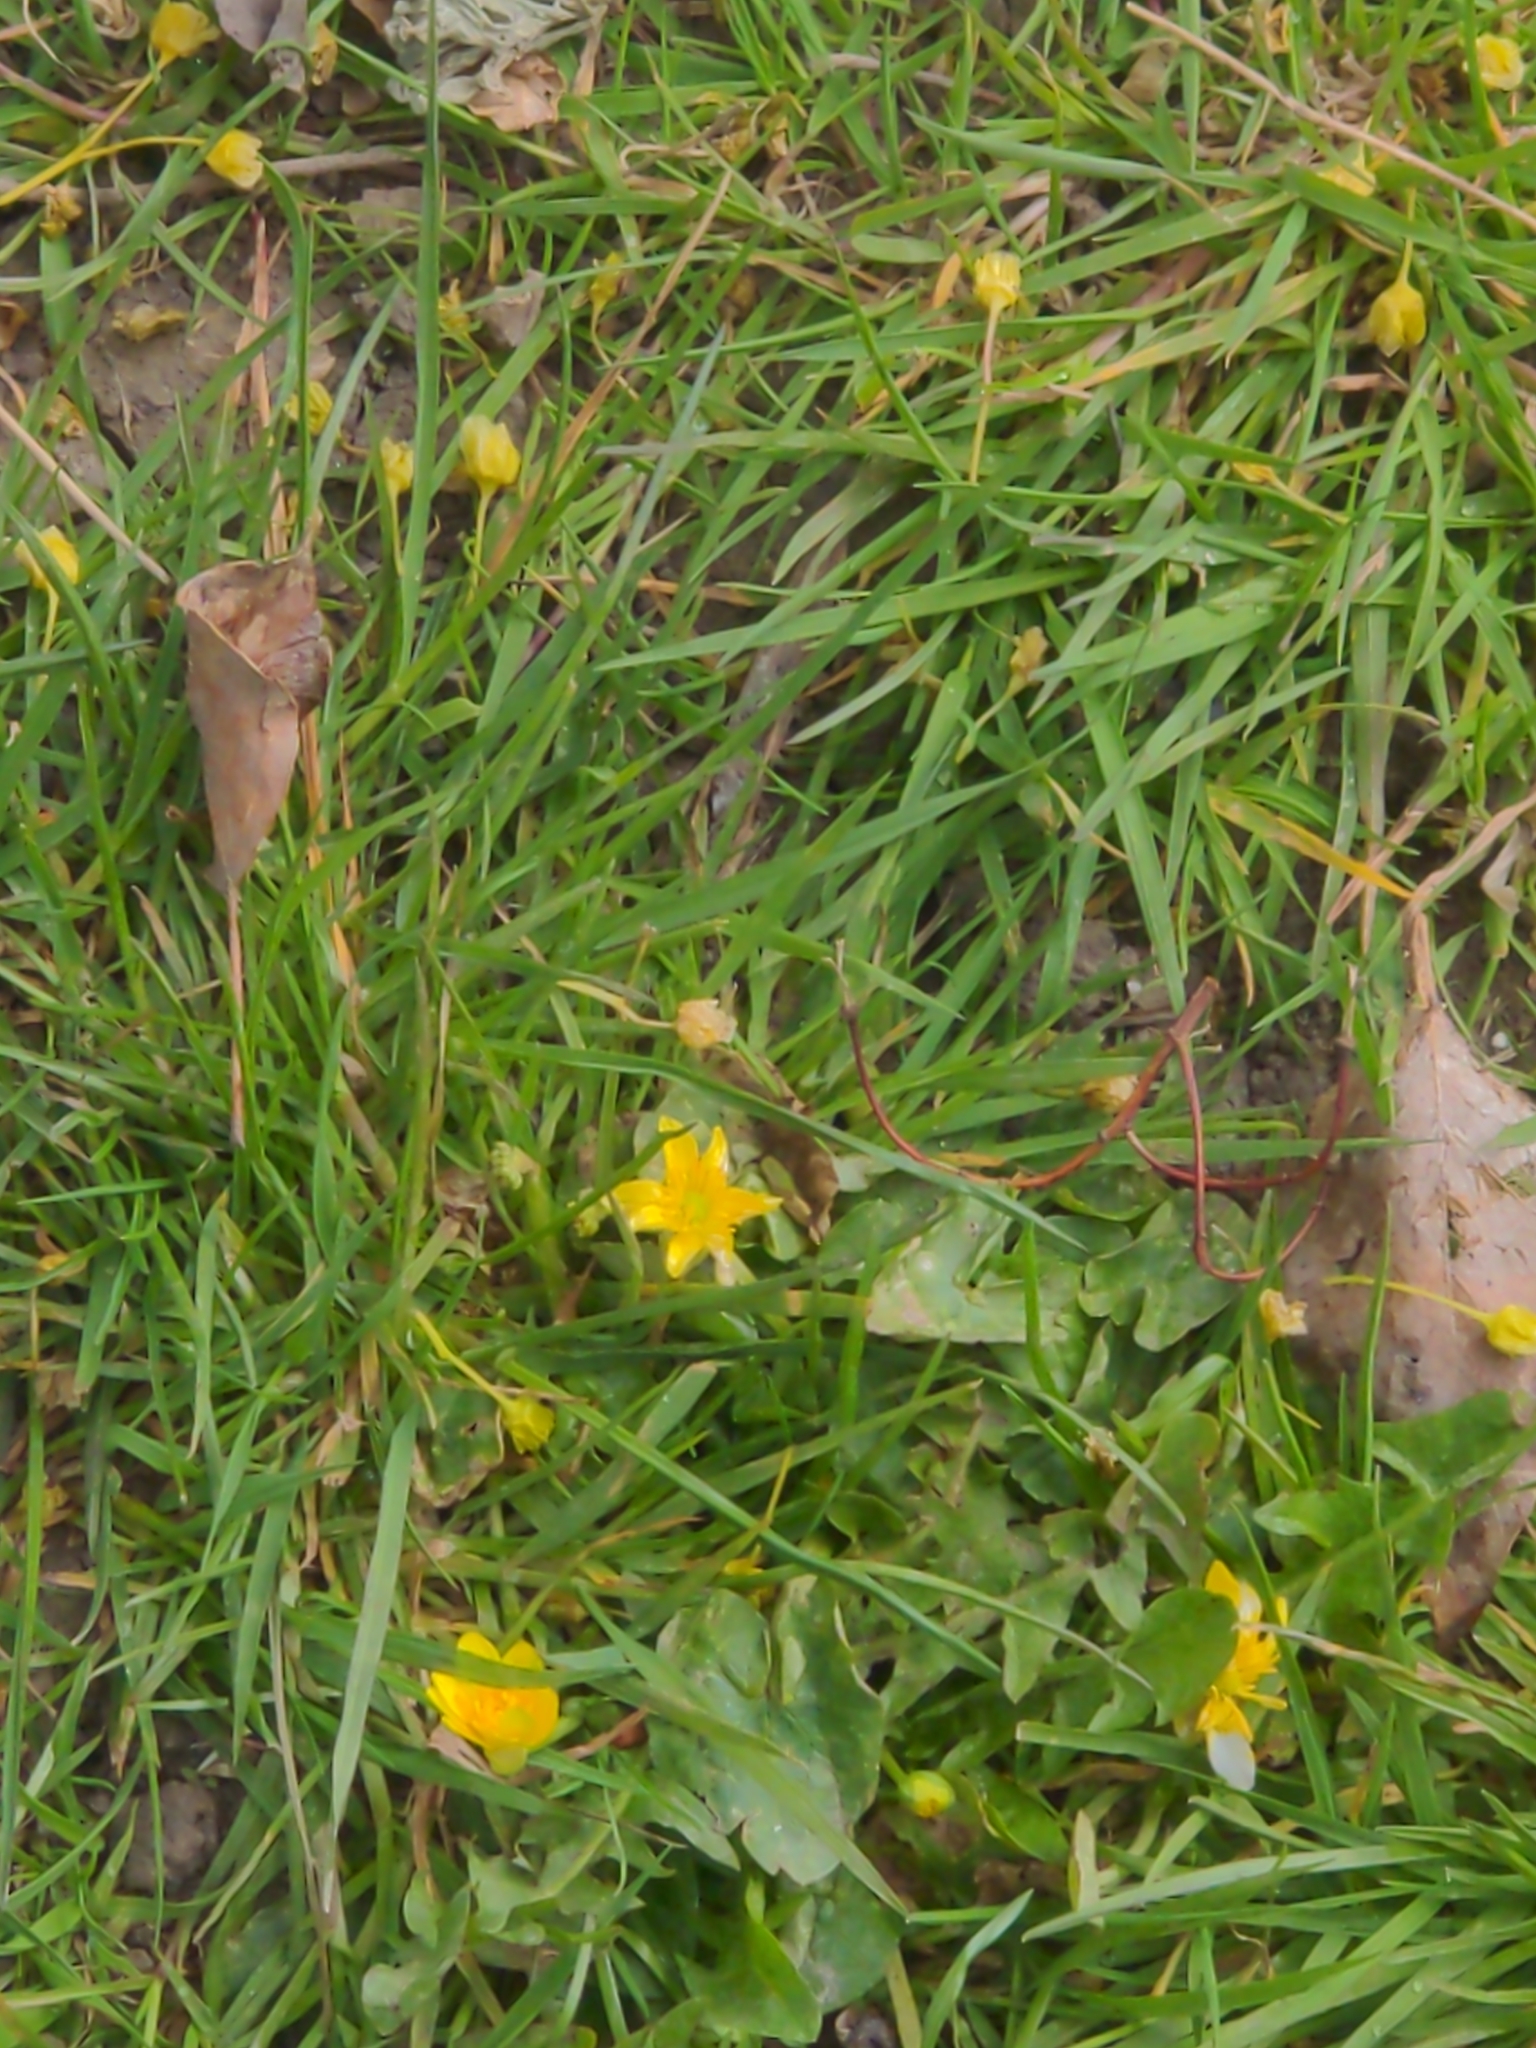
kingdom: Plantae
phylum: Tracheophyta
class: Magnoliopsida
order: Ranunculales
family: Ranunculaceae
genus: Ficaria
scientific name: Ficaria verna
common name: Lesser celandine
